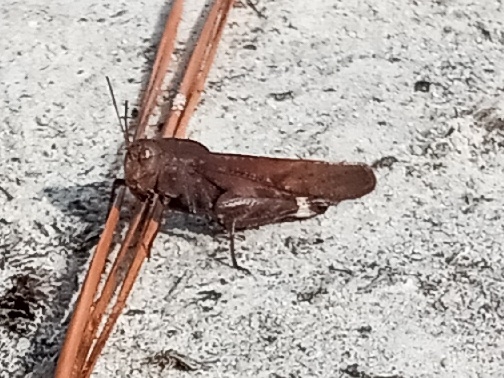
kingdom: Animalia
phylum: Arthropoda
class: Insecta
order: Orthoptera
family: Acrididae
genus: Arphia
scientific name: Arphia xanthoptera
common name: Autumn yellow-winged grasshopper
